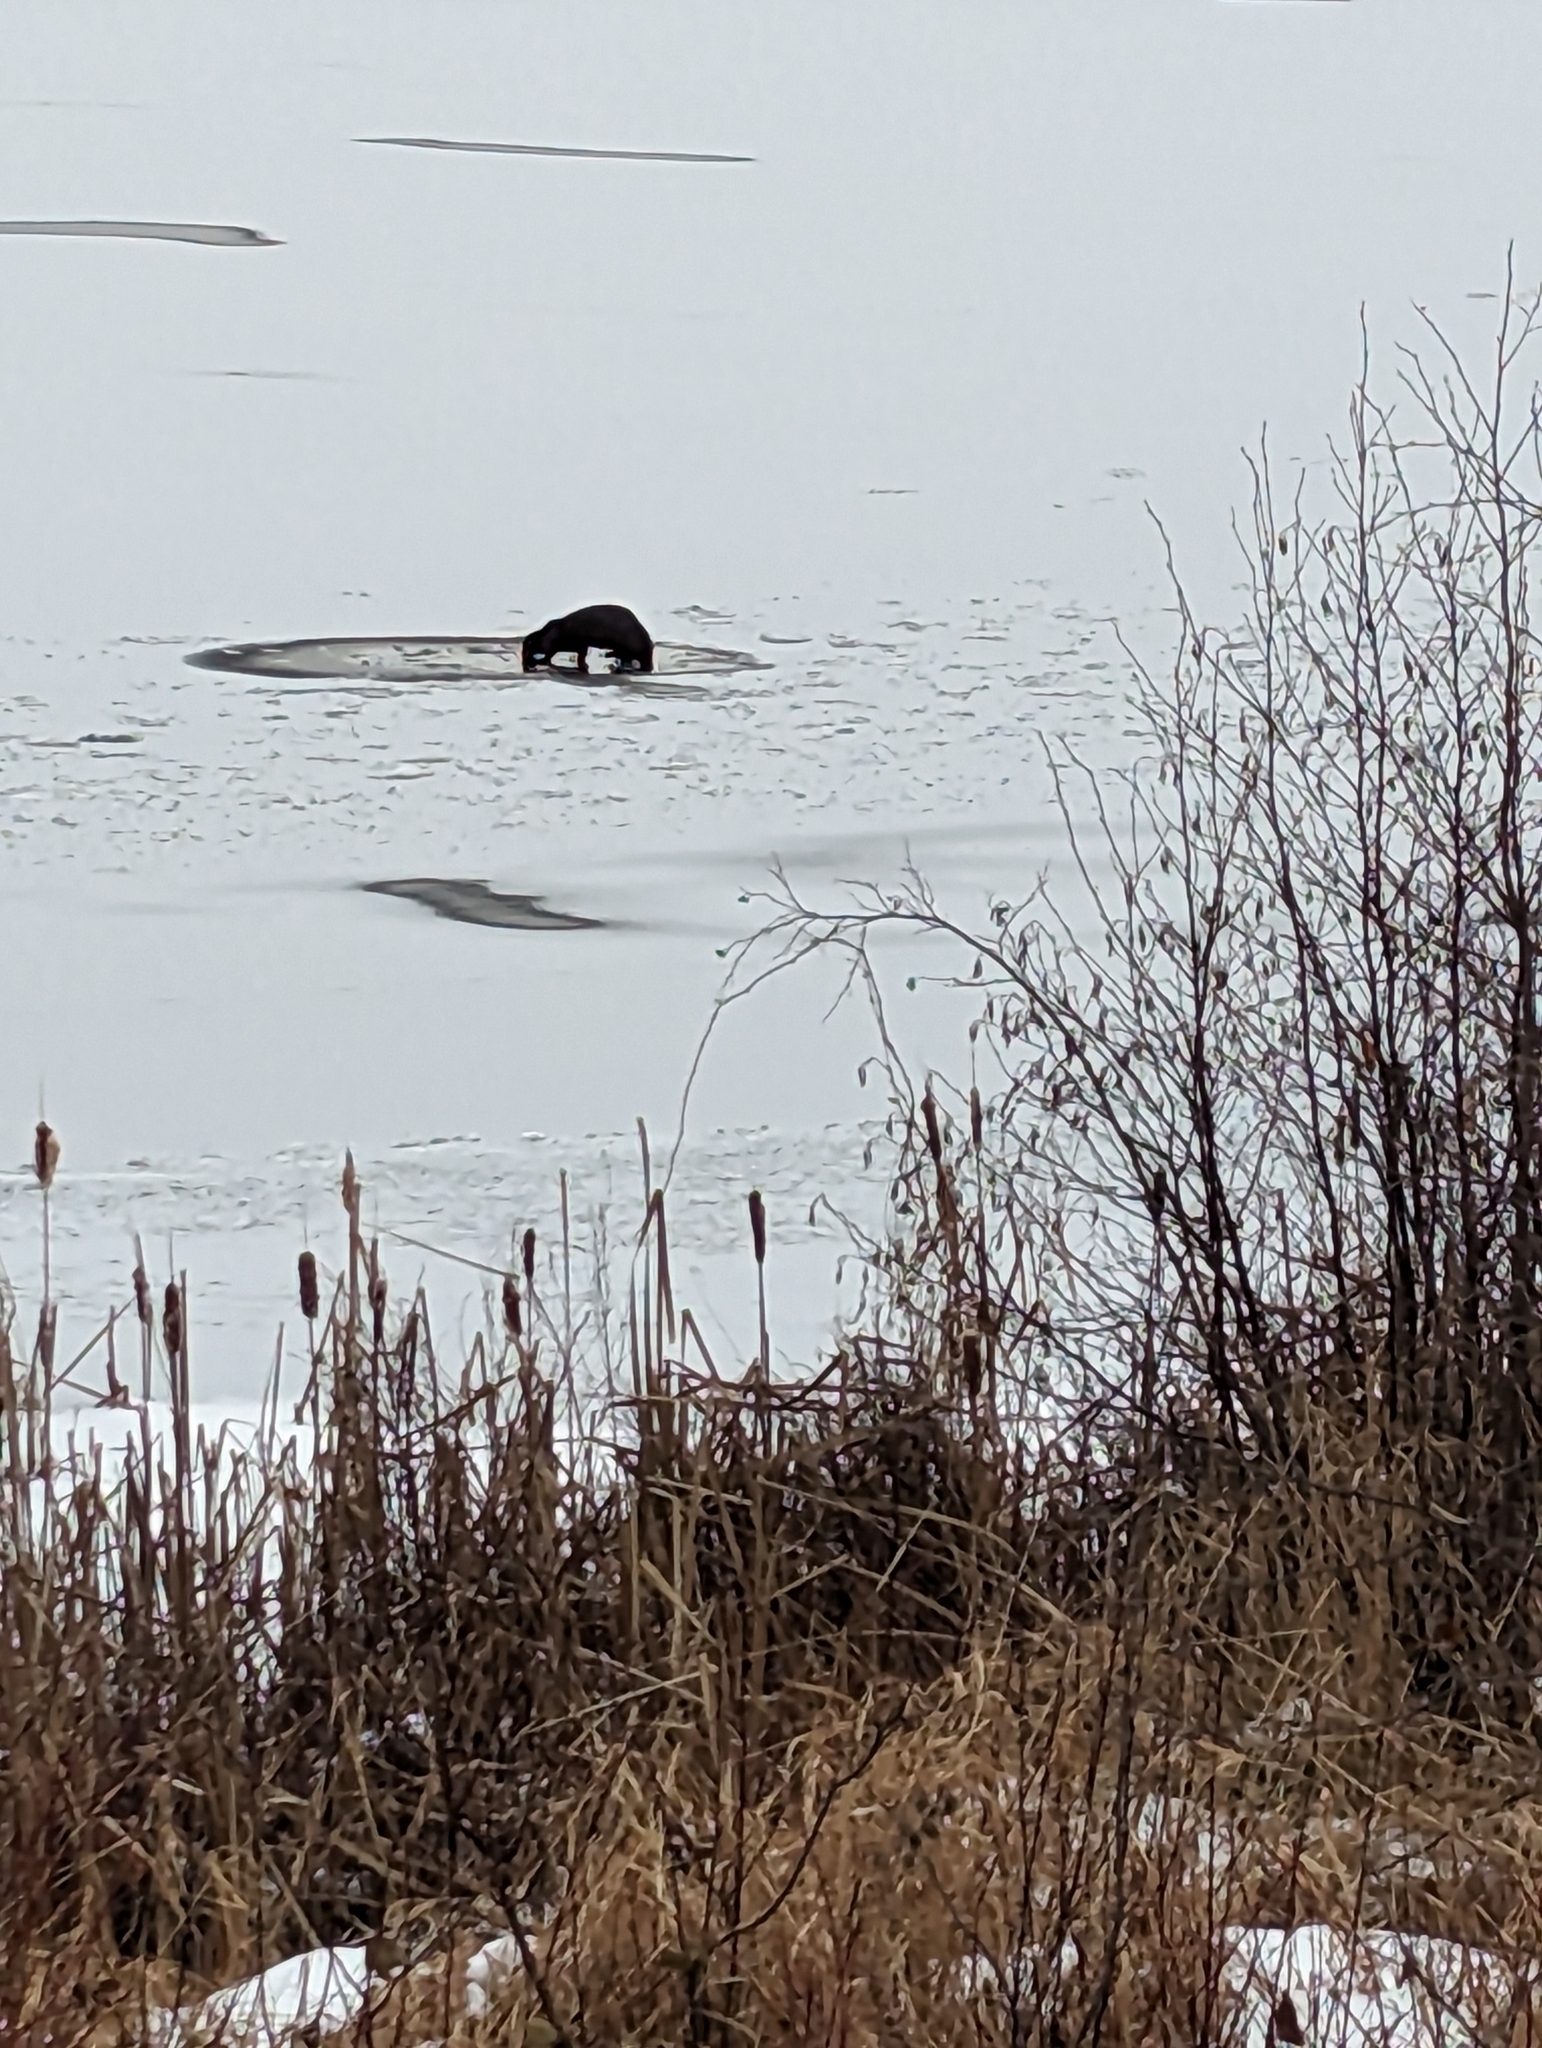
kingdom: Animalia
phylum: Chordata
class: Mammalia
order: Carnivora
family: Mustelidae
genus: Lontra
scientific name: Lontra canadensis
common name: North american river otter
